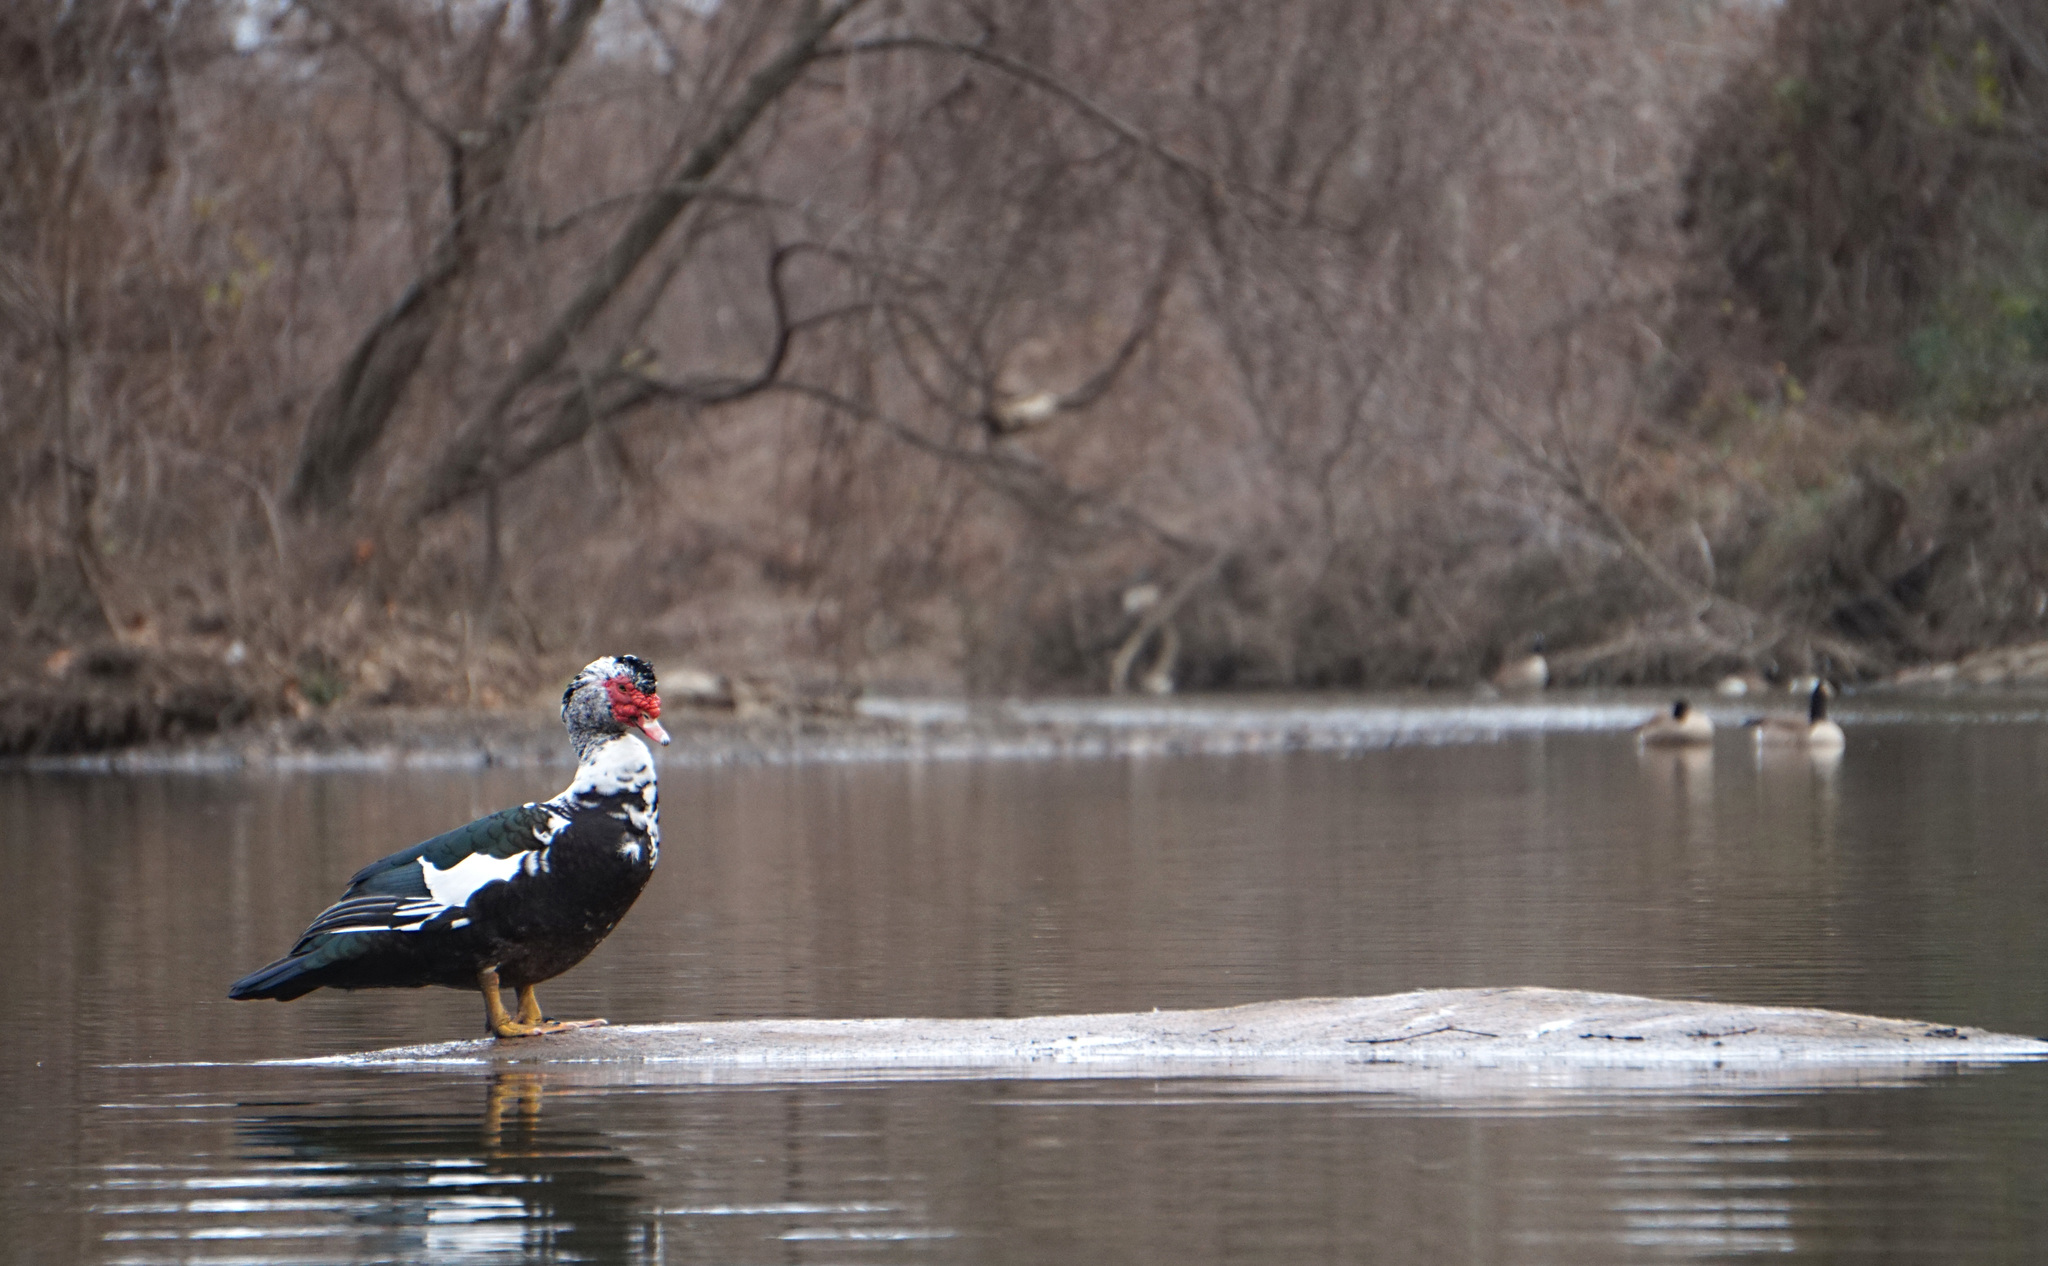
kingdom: Animalia
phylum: Chordata
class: Aves
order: Anseriformes
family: Anatidae
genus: Cairina
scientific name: Cairina moschata
